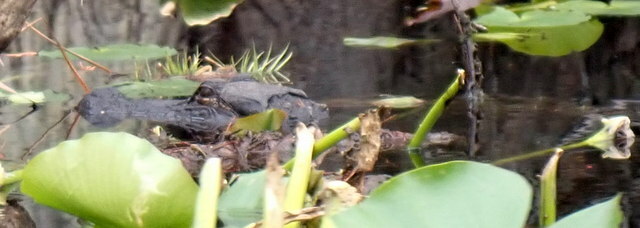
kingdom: Animalia
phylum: Chordata
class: Crocodylia
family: Alligatoridae
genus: Alligator
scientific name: Alligator mississippiensis
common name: American alligator
